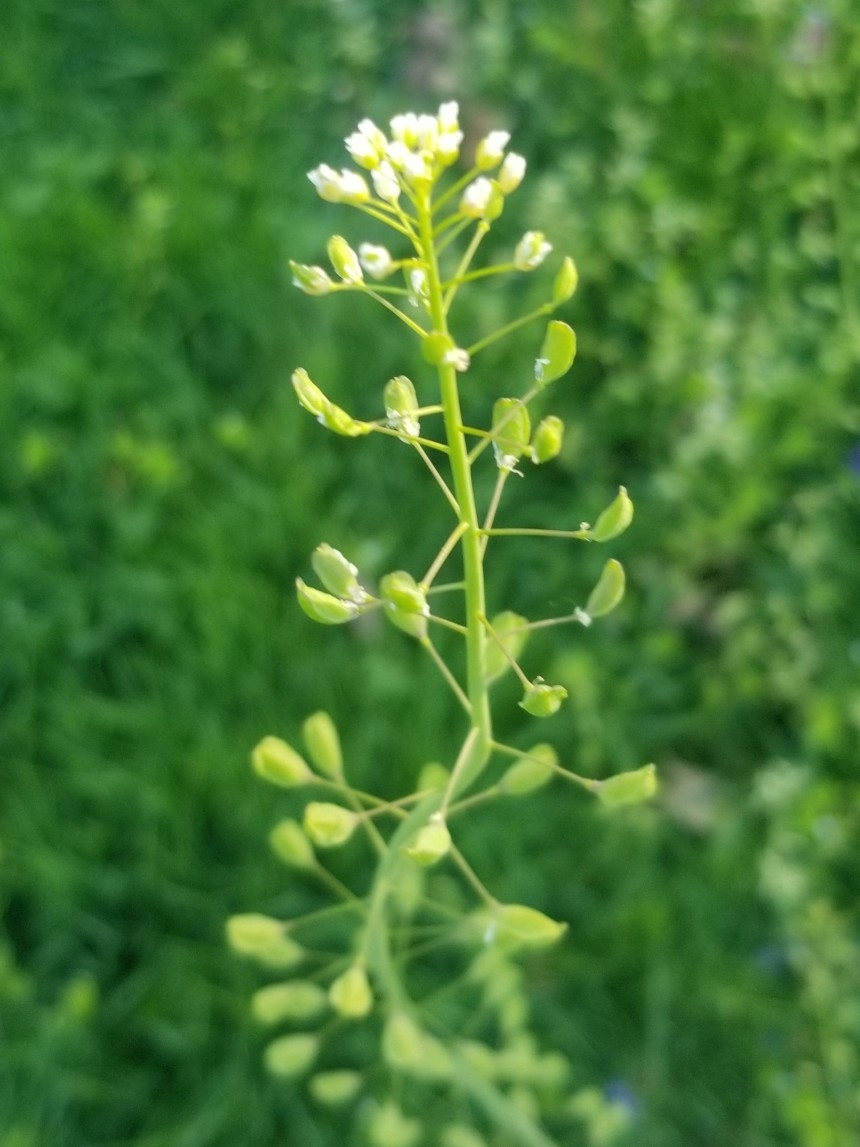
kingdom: Plantae
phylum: Tracheophyta
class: Magnoliopsida
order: Brassicales
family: Brassicaceae
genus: Mummenhoffia
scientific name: Mummenhoffia alliacea
